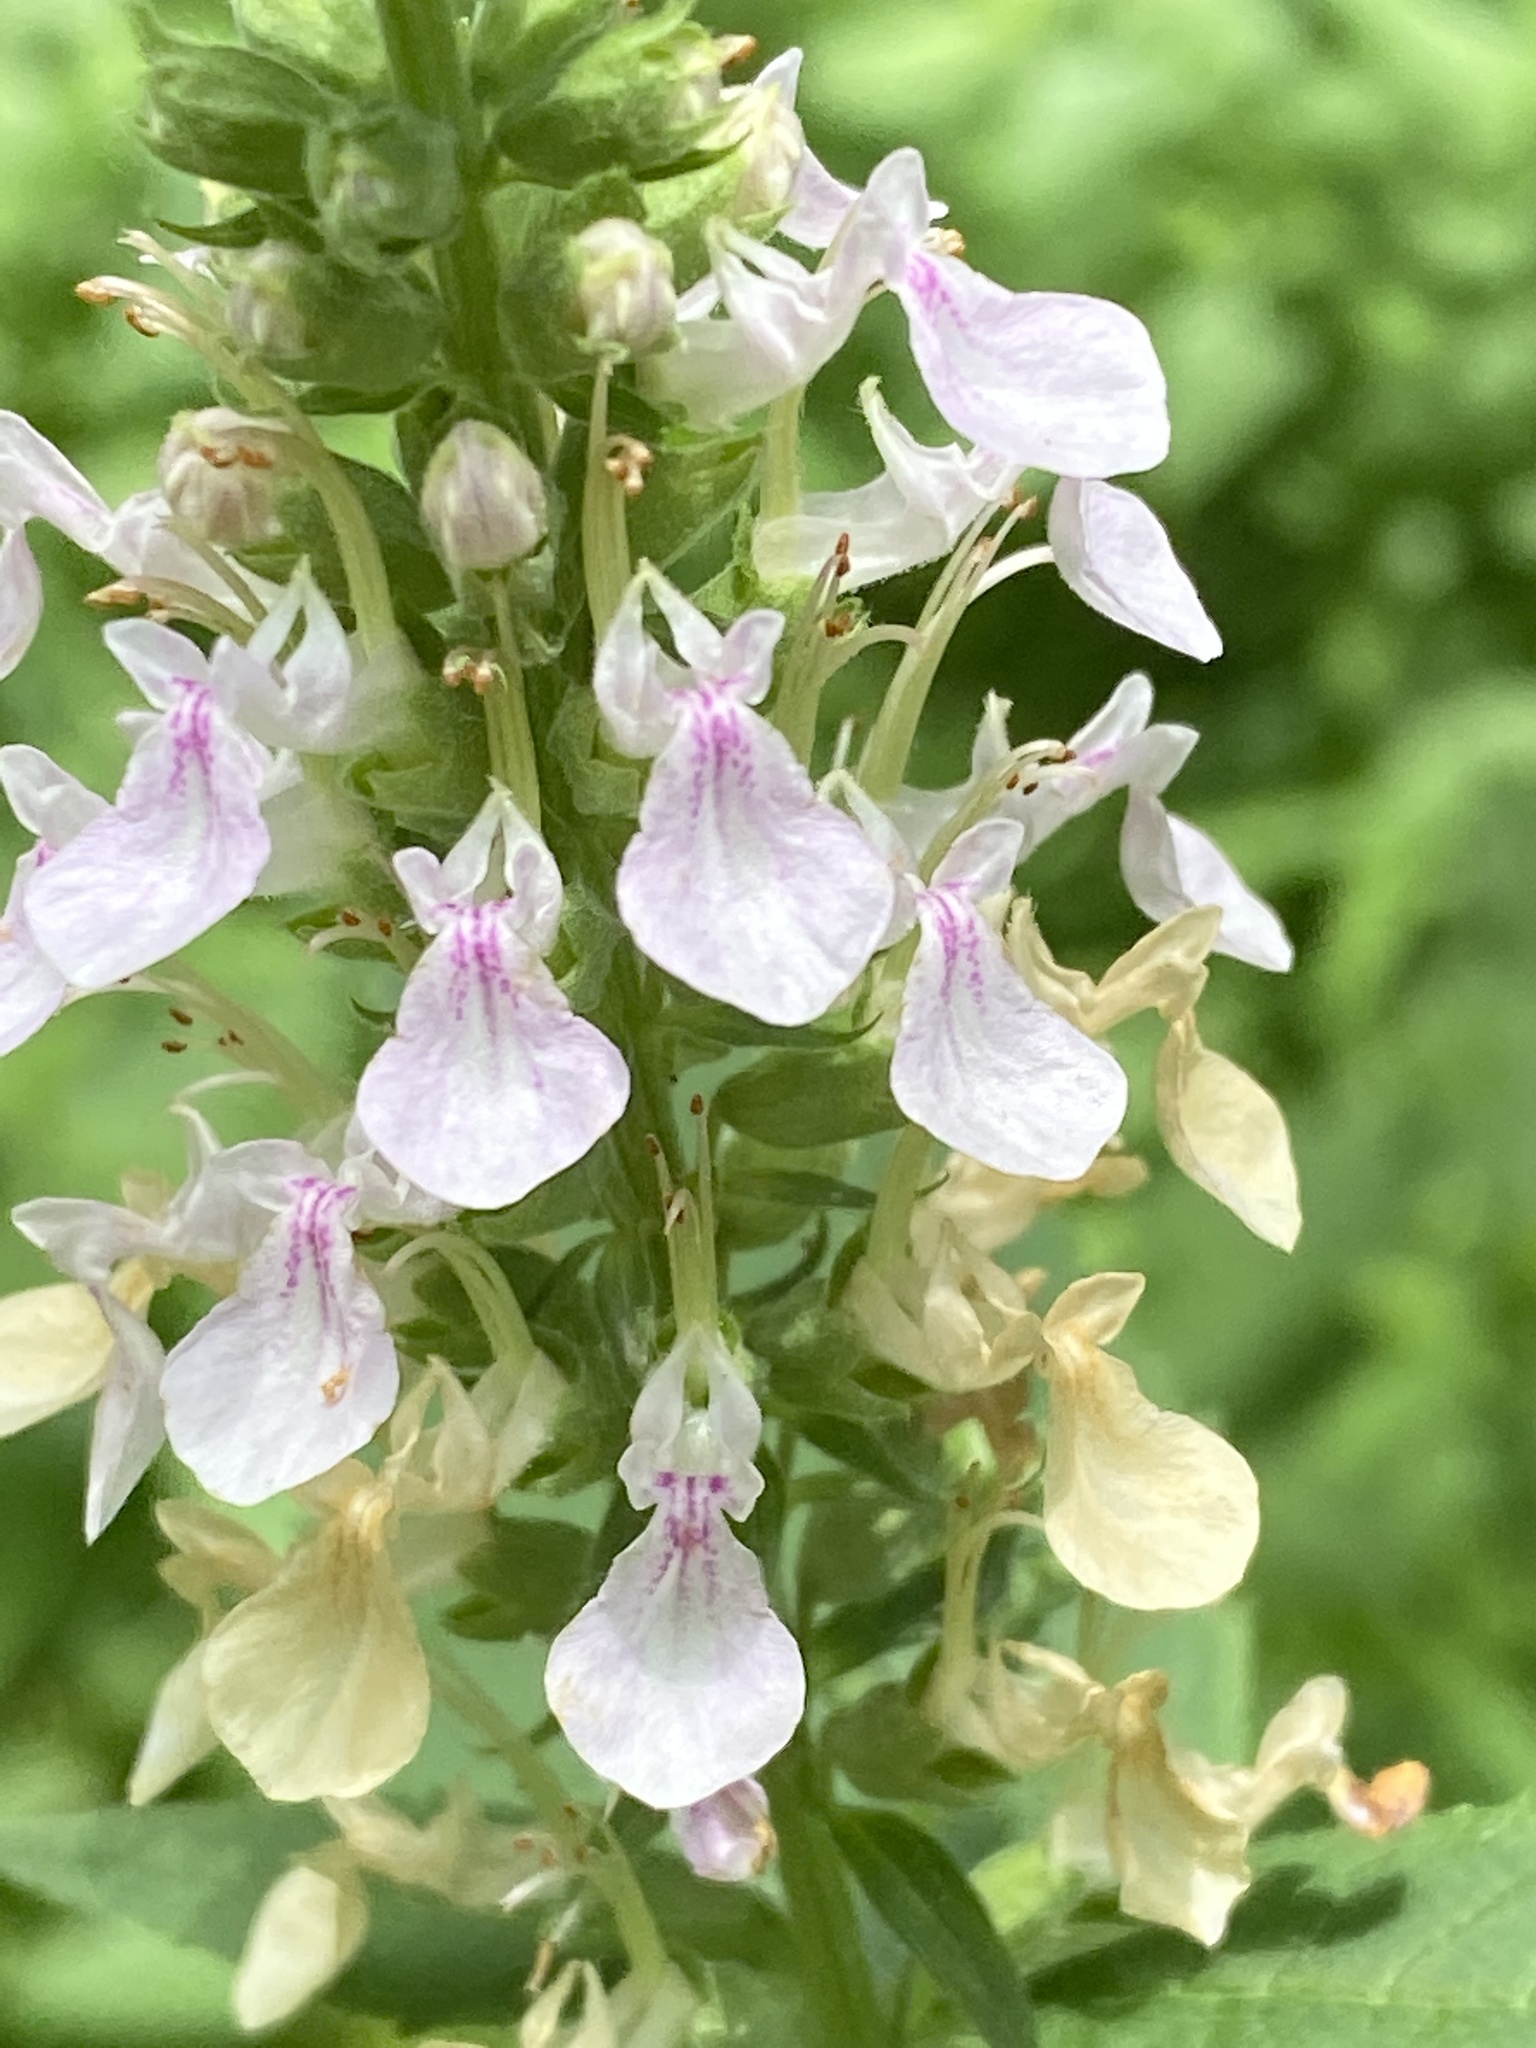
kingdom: Plantae
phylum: Tracheophyta
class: Magnoliopsida
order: Lamiales
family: Lamiaceae
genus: Teucrium
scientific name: Teucrium canadense
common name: American germander
